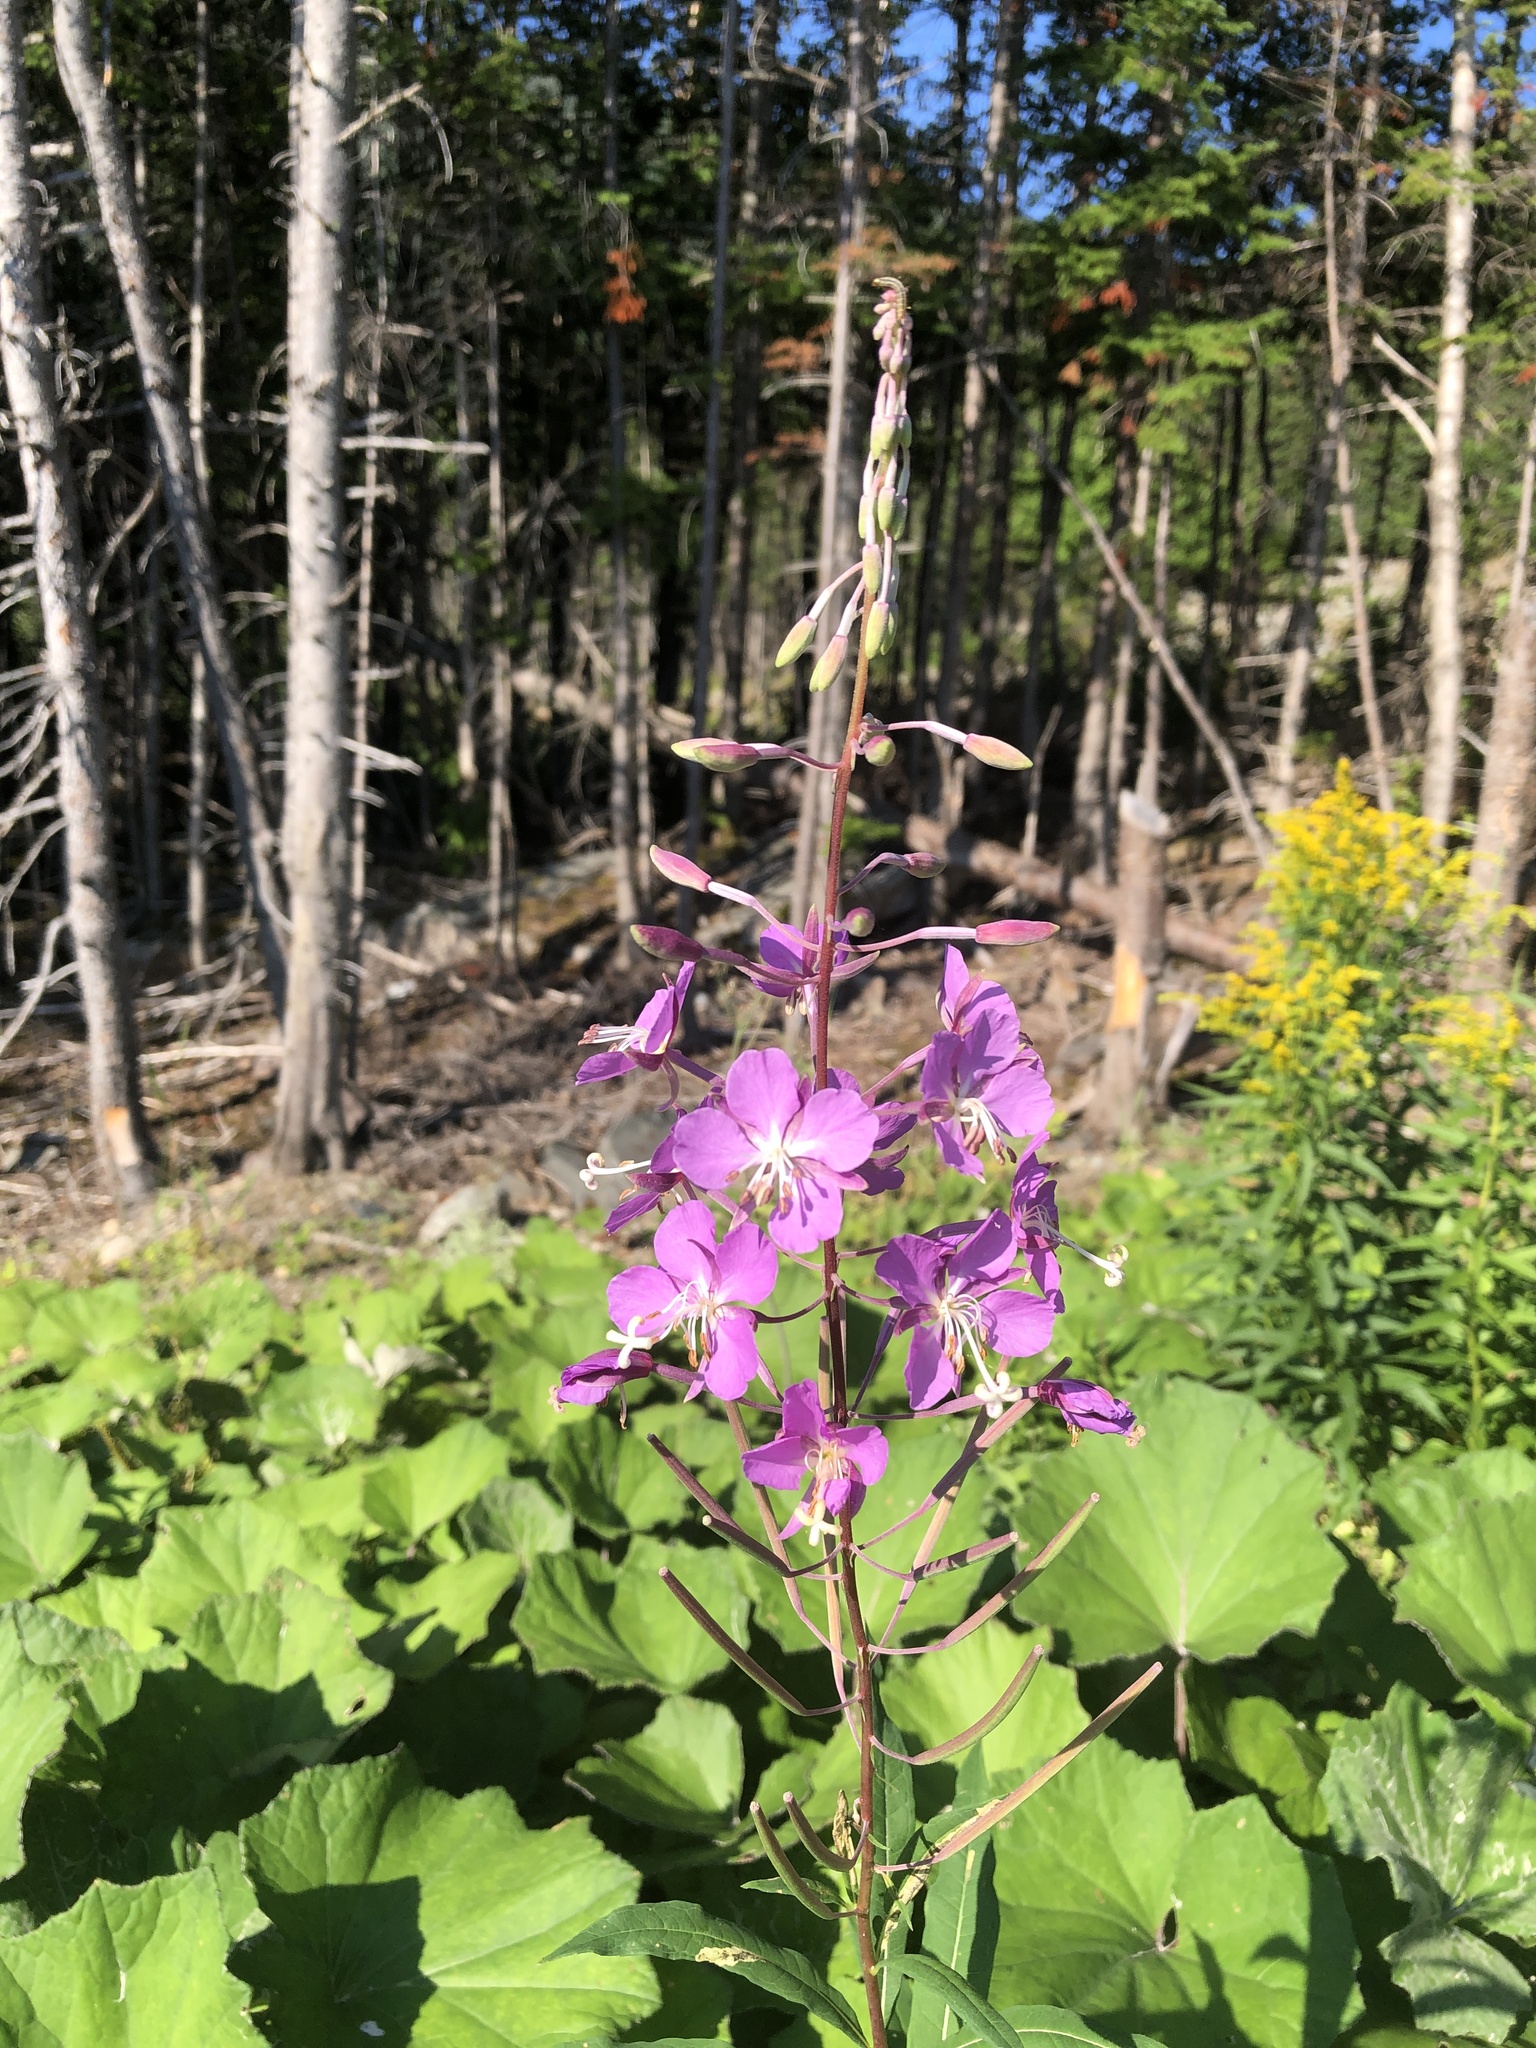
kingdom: Plantae
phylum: Tracheophyta
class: Magnoliopsida
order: Myrtales
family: Onagraceae
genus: Chamaenerion
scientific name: Chamaenerion angustifolium
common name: Fireweed
